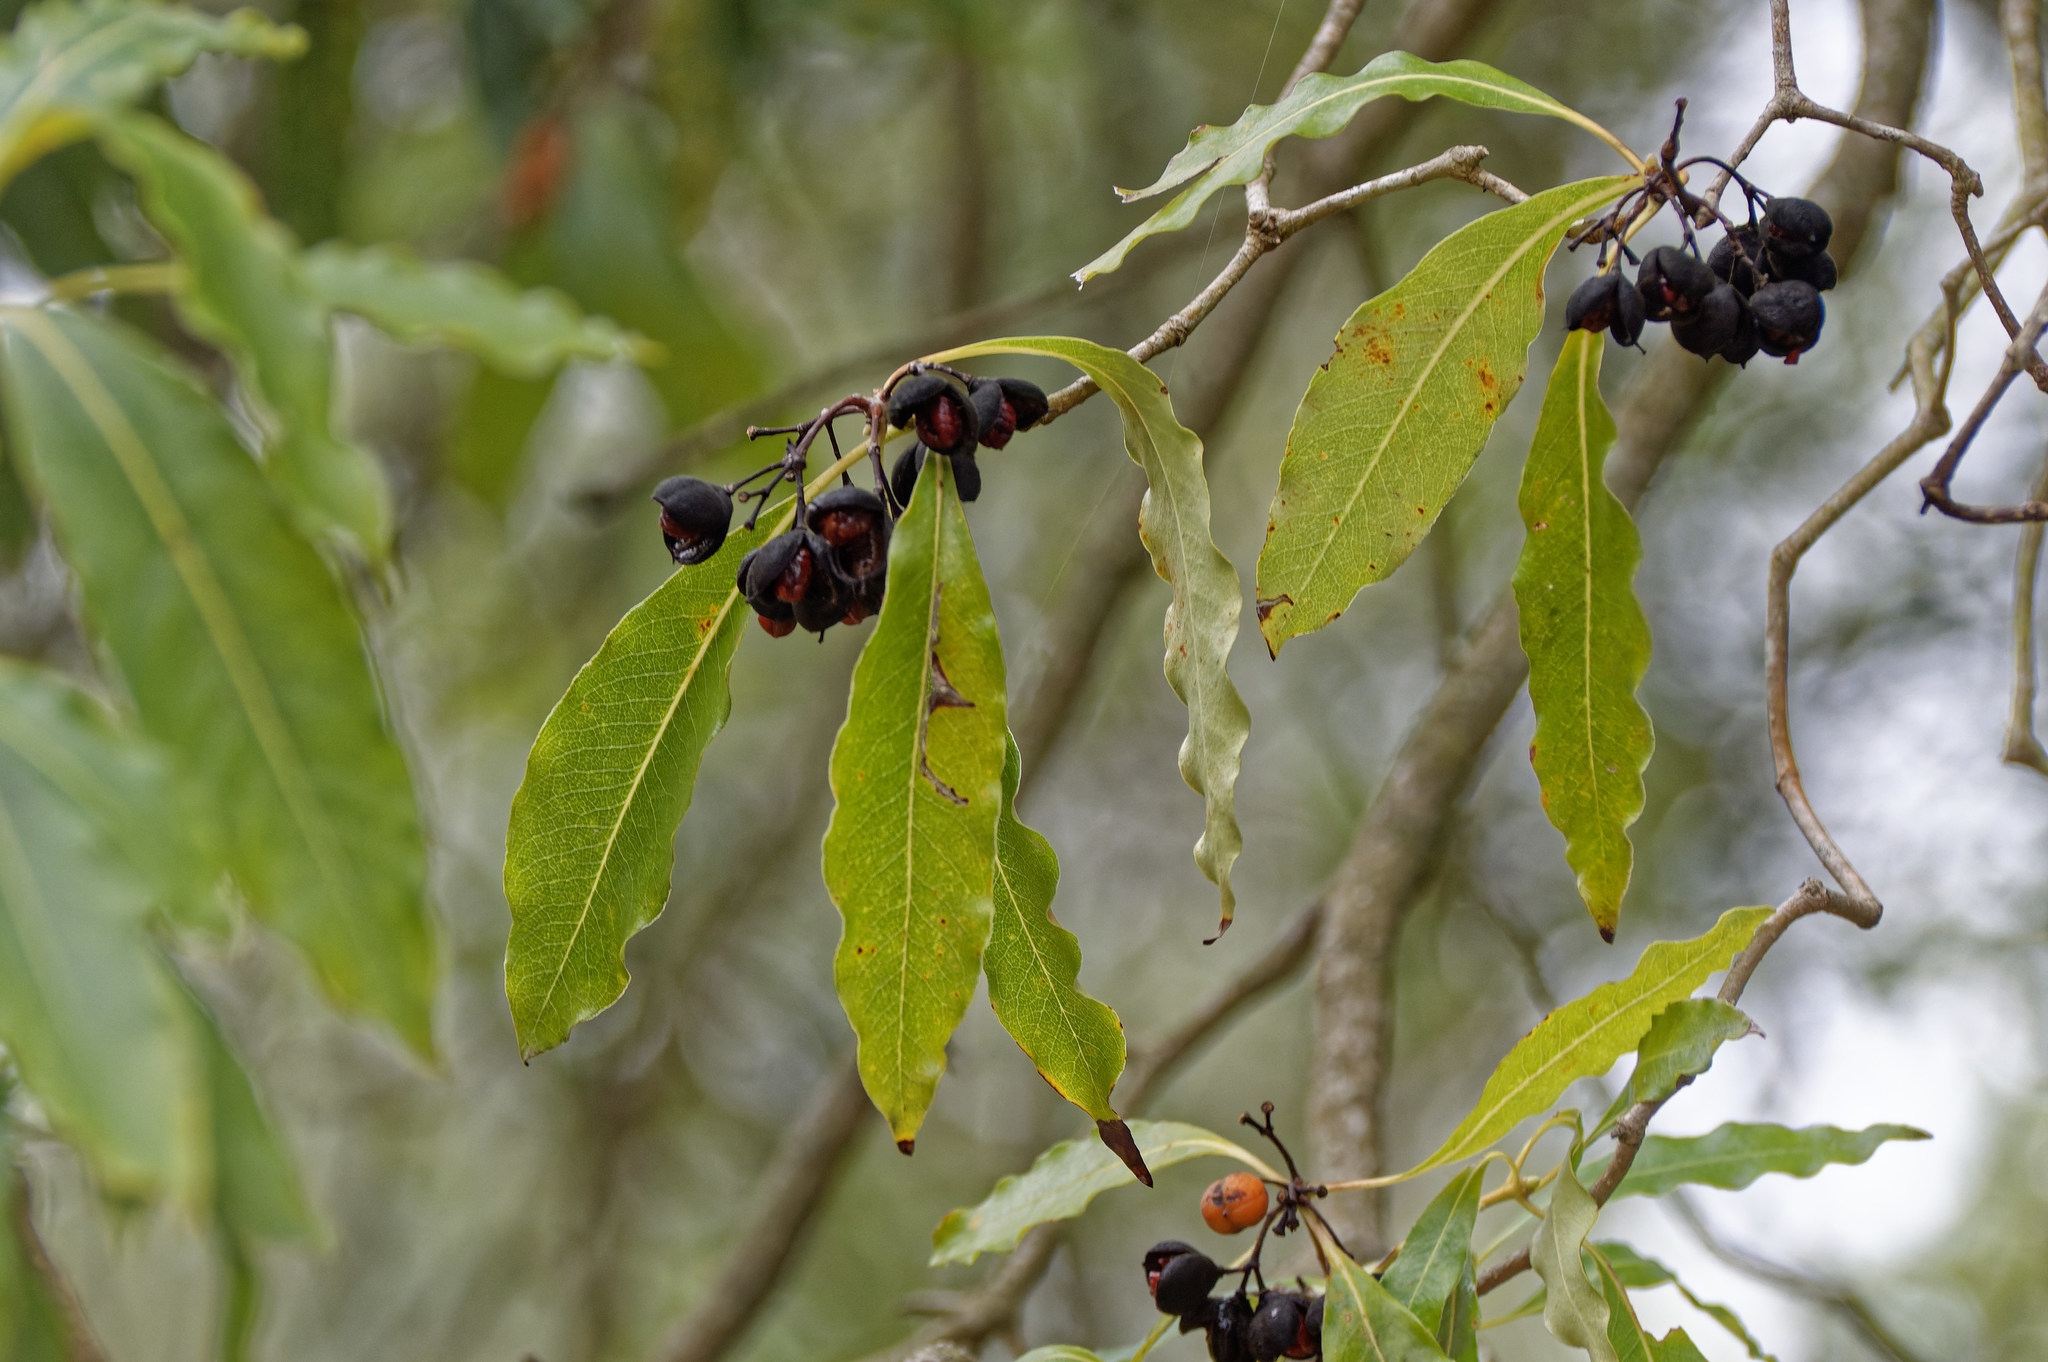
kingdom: Plantae
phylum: Tracheophyta
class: Magnoliopsida
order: Apiales
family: Pittosporaceae
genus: Pittosporum
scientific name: Pittosporum undulatum
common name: Australian cheesewood
